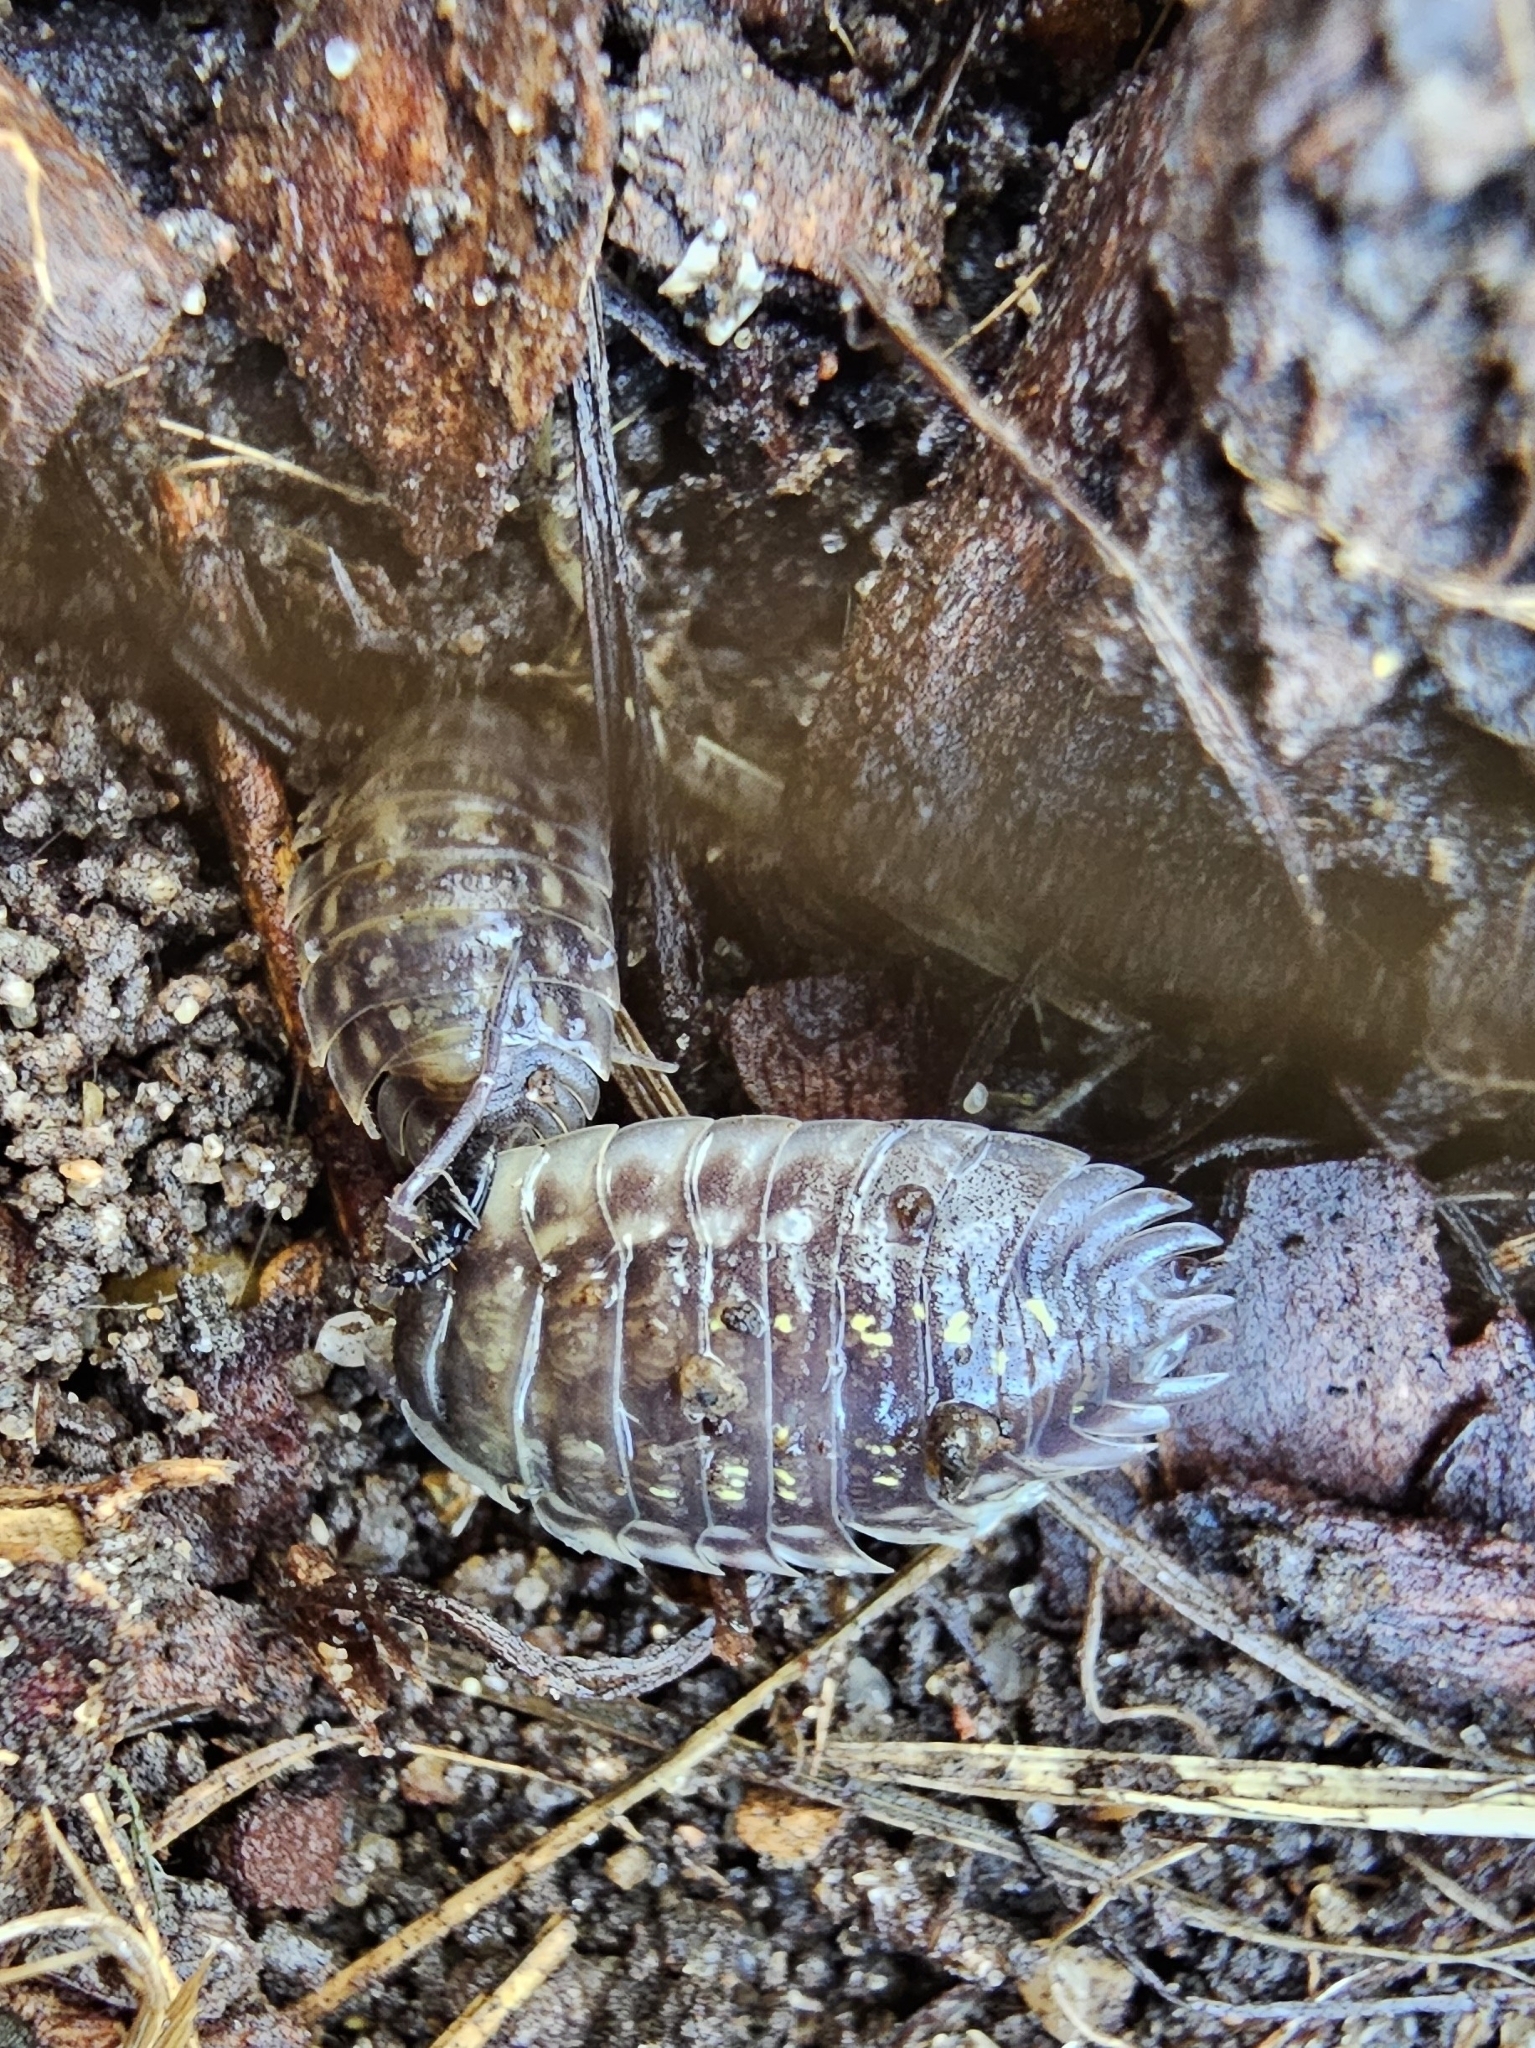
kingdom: Animalia
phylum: Arthropoda
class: Malacostraca
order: Isopoda
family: Oniscidae
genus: Oniscus
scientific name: Oniscus asellus
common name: Common shiny woodlouse
